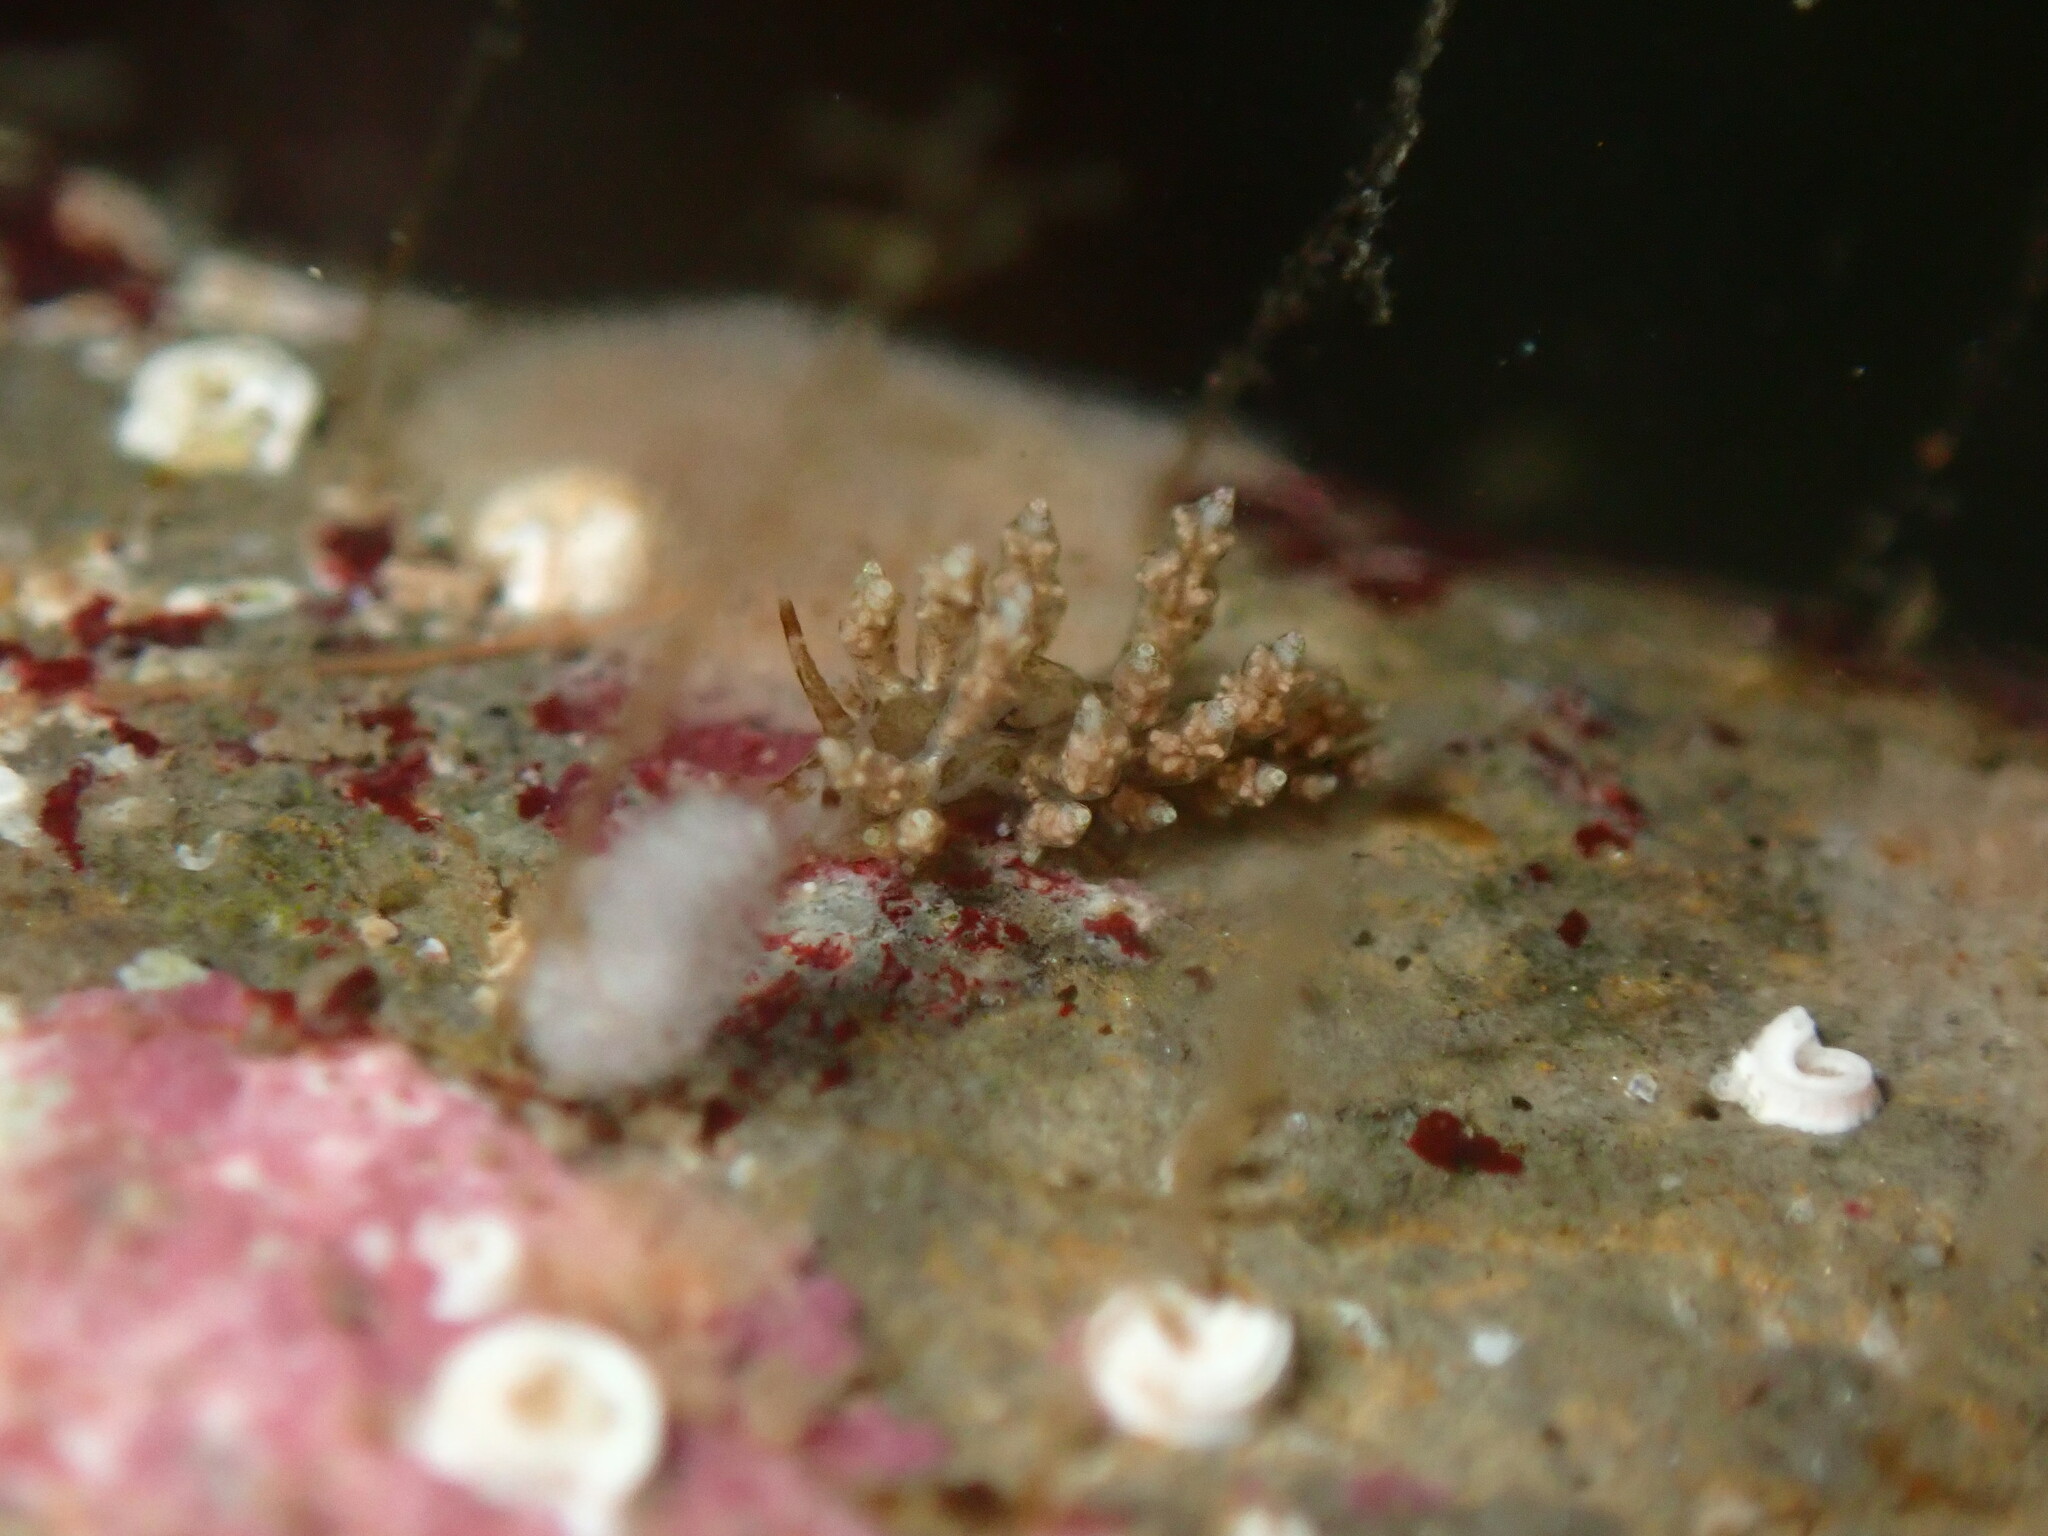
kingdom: Animalia
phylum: Mollusca
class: Gastropoda
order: Nudibranchia
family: Eubranchidae
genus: Eubranchus
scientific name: Eubranchus rustyus
